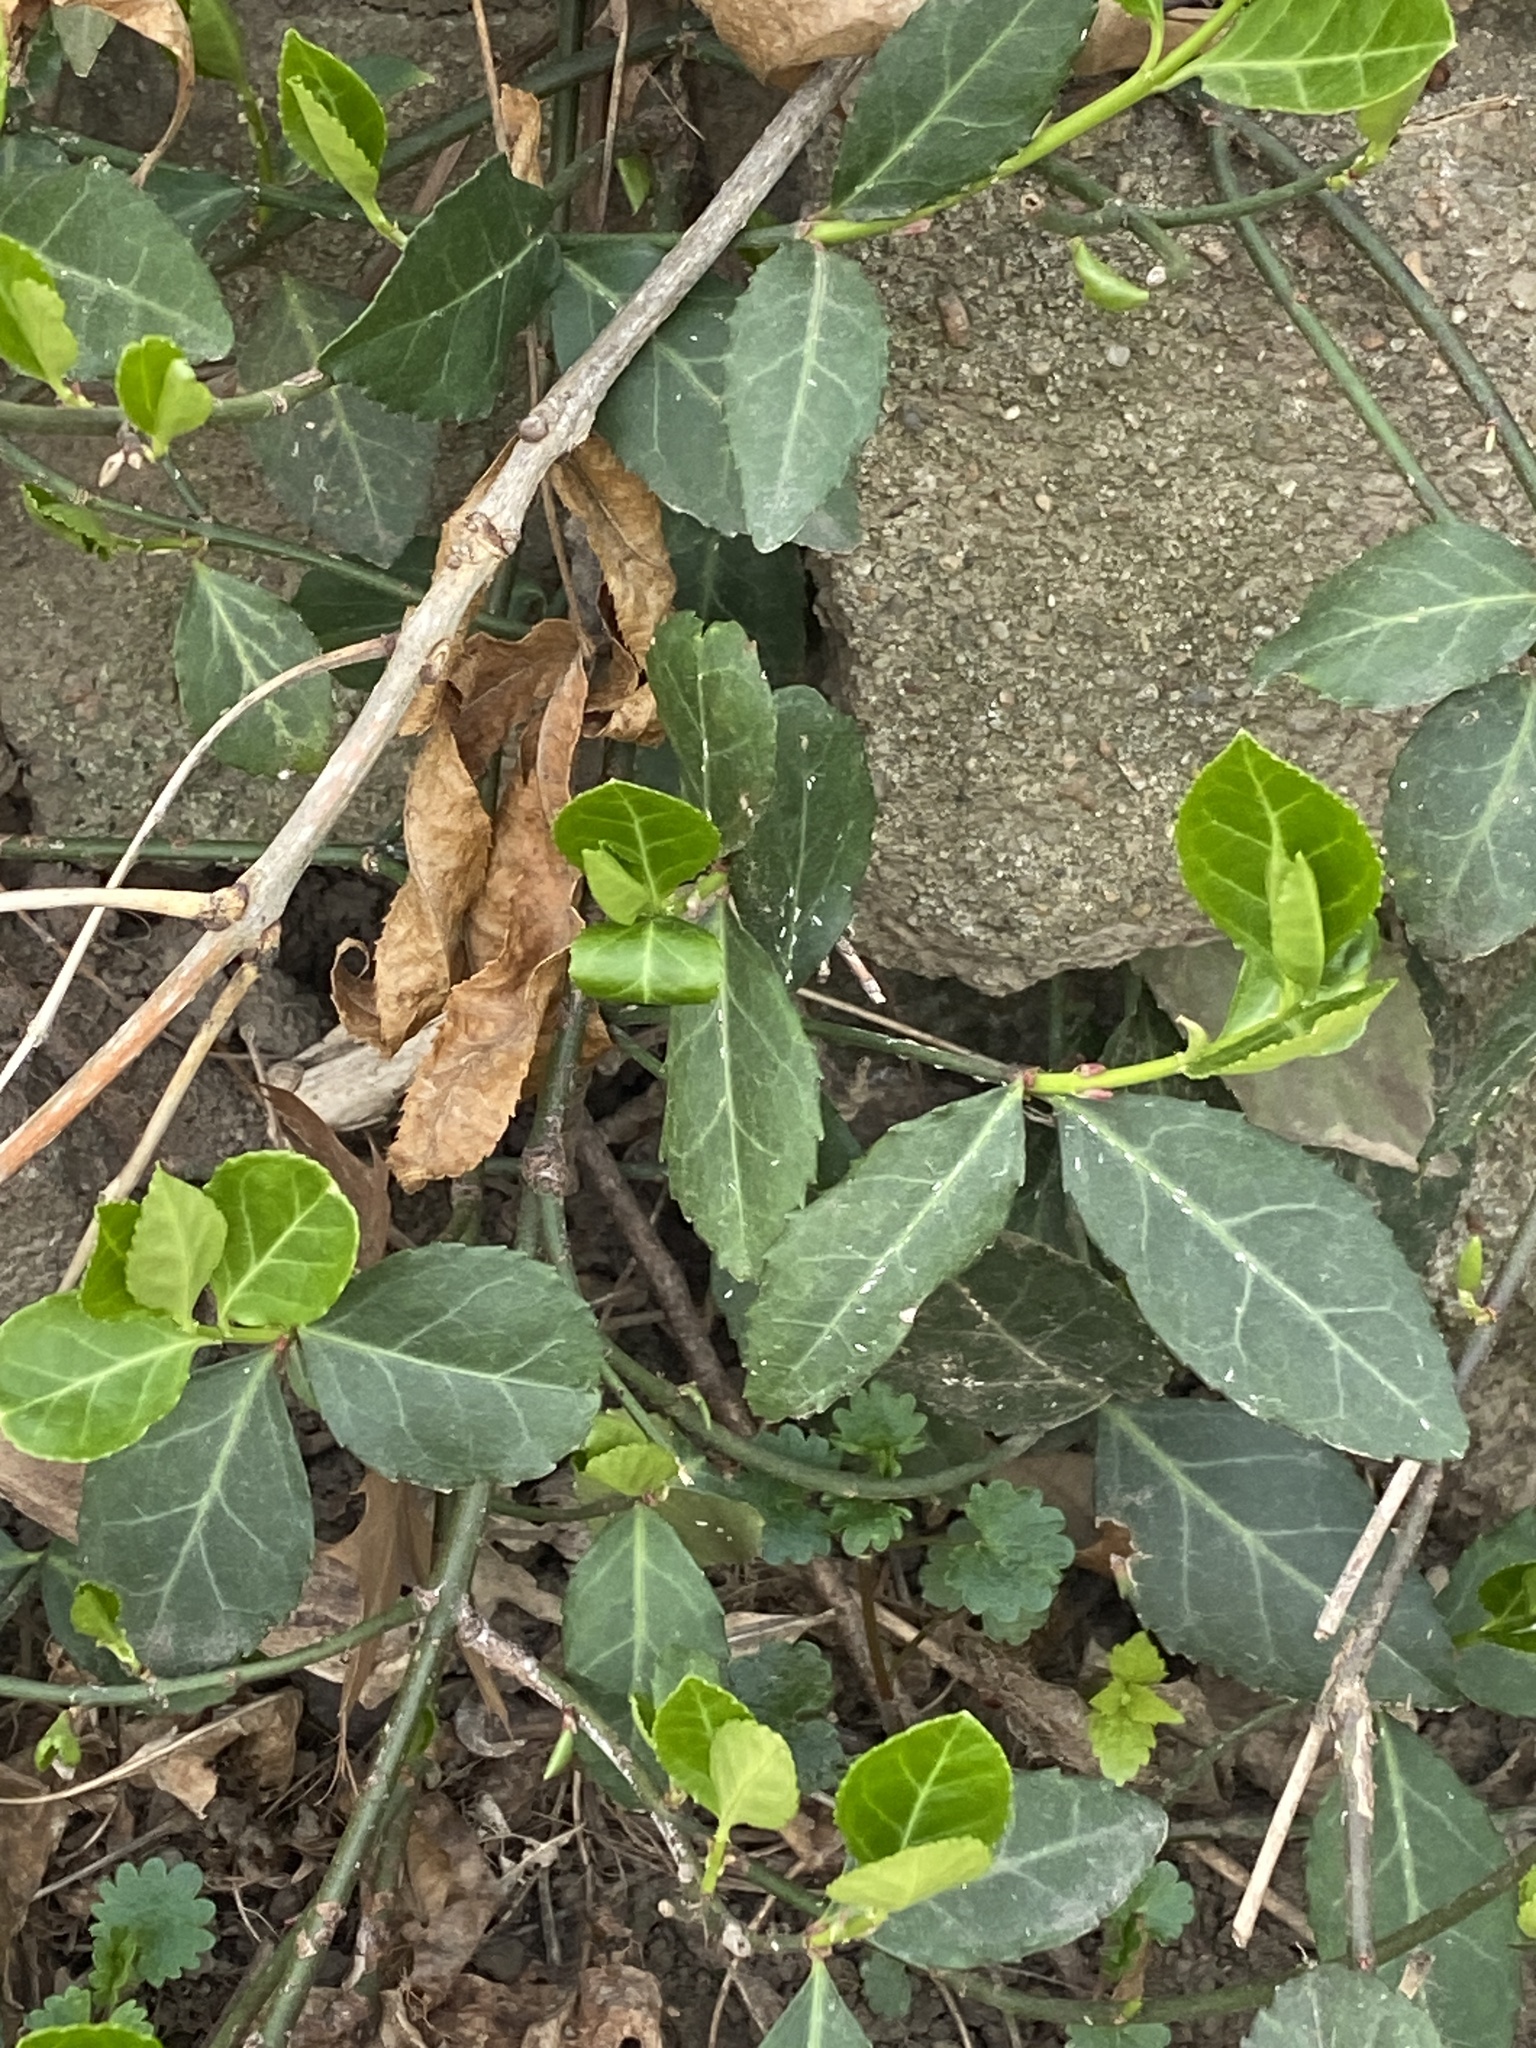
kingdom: Plantae
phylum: Tracheophyta
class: Magnoliopsida
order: Celastrales
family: Celastraceae
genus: Euonymus
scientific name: Euonymus fortunei
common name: Climbing euonymus
